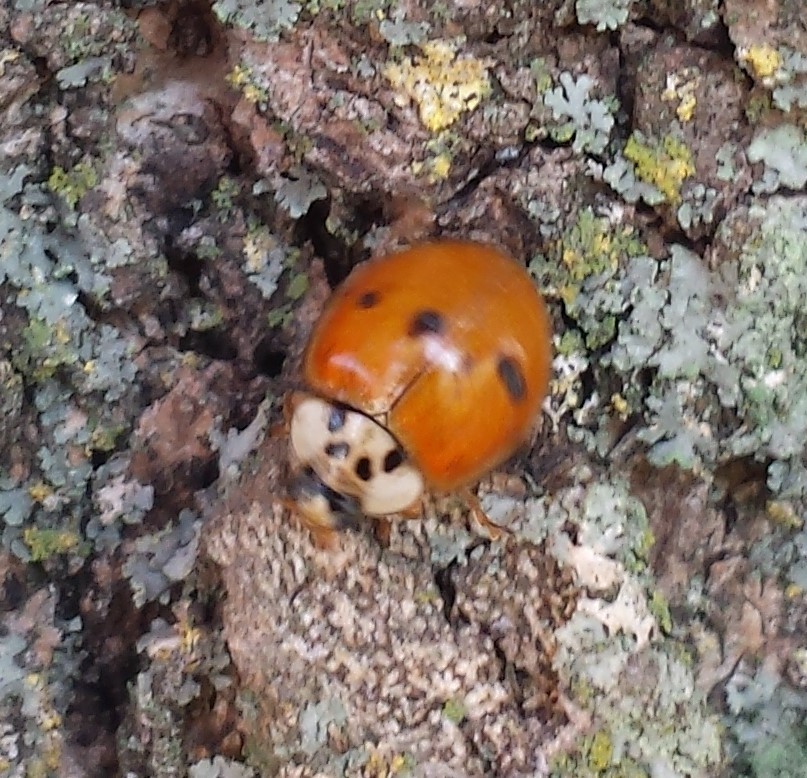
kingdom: Animalia
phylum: Arthropoda
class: Insecta
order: Coleoptera
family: Coccinellidae
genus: Harmonia
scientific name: Harmonia axyridis
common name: Harlequin ladybird
